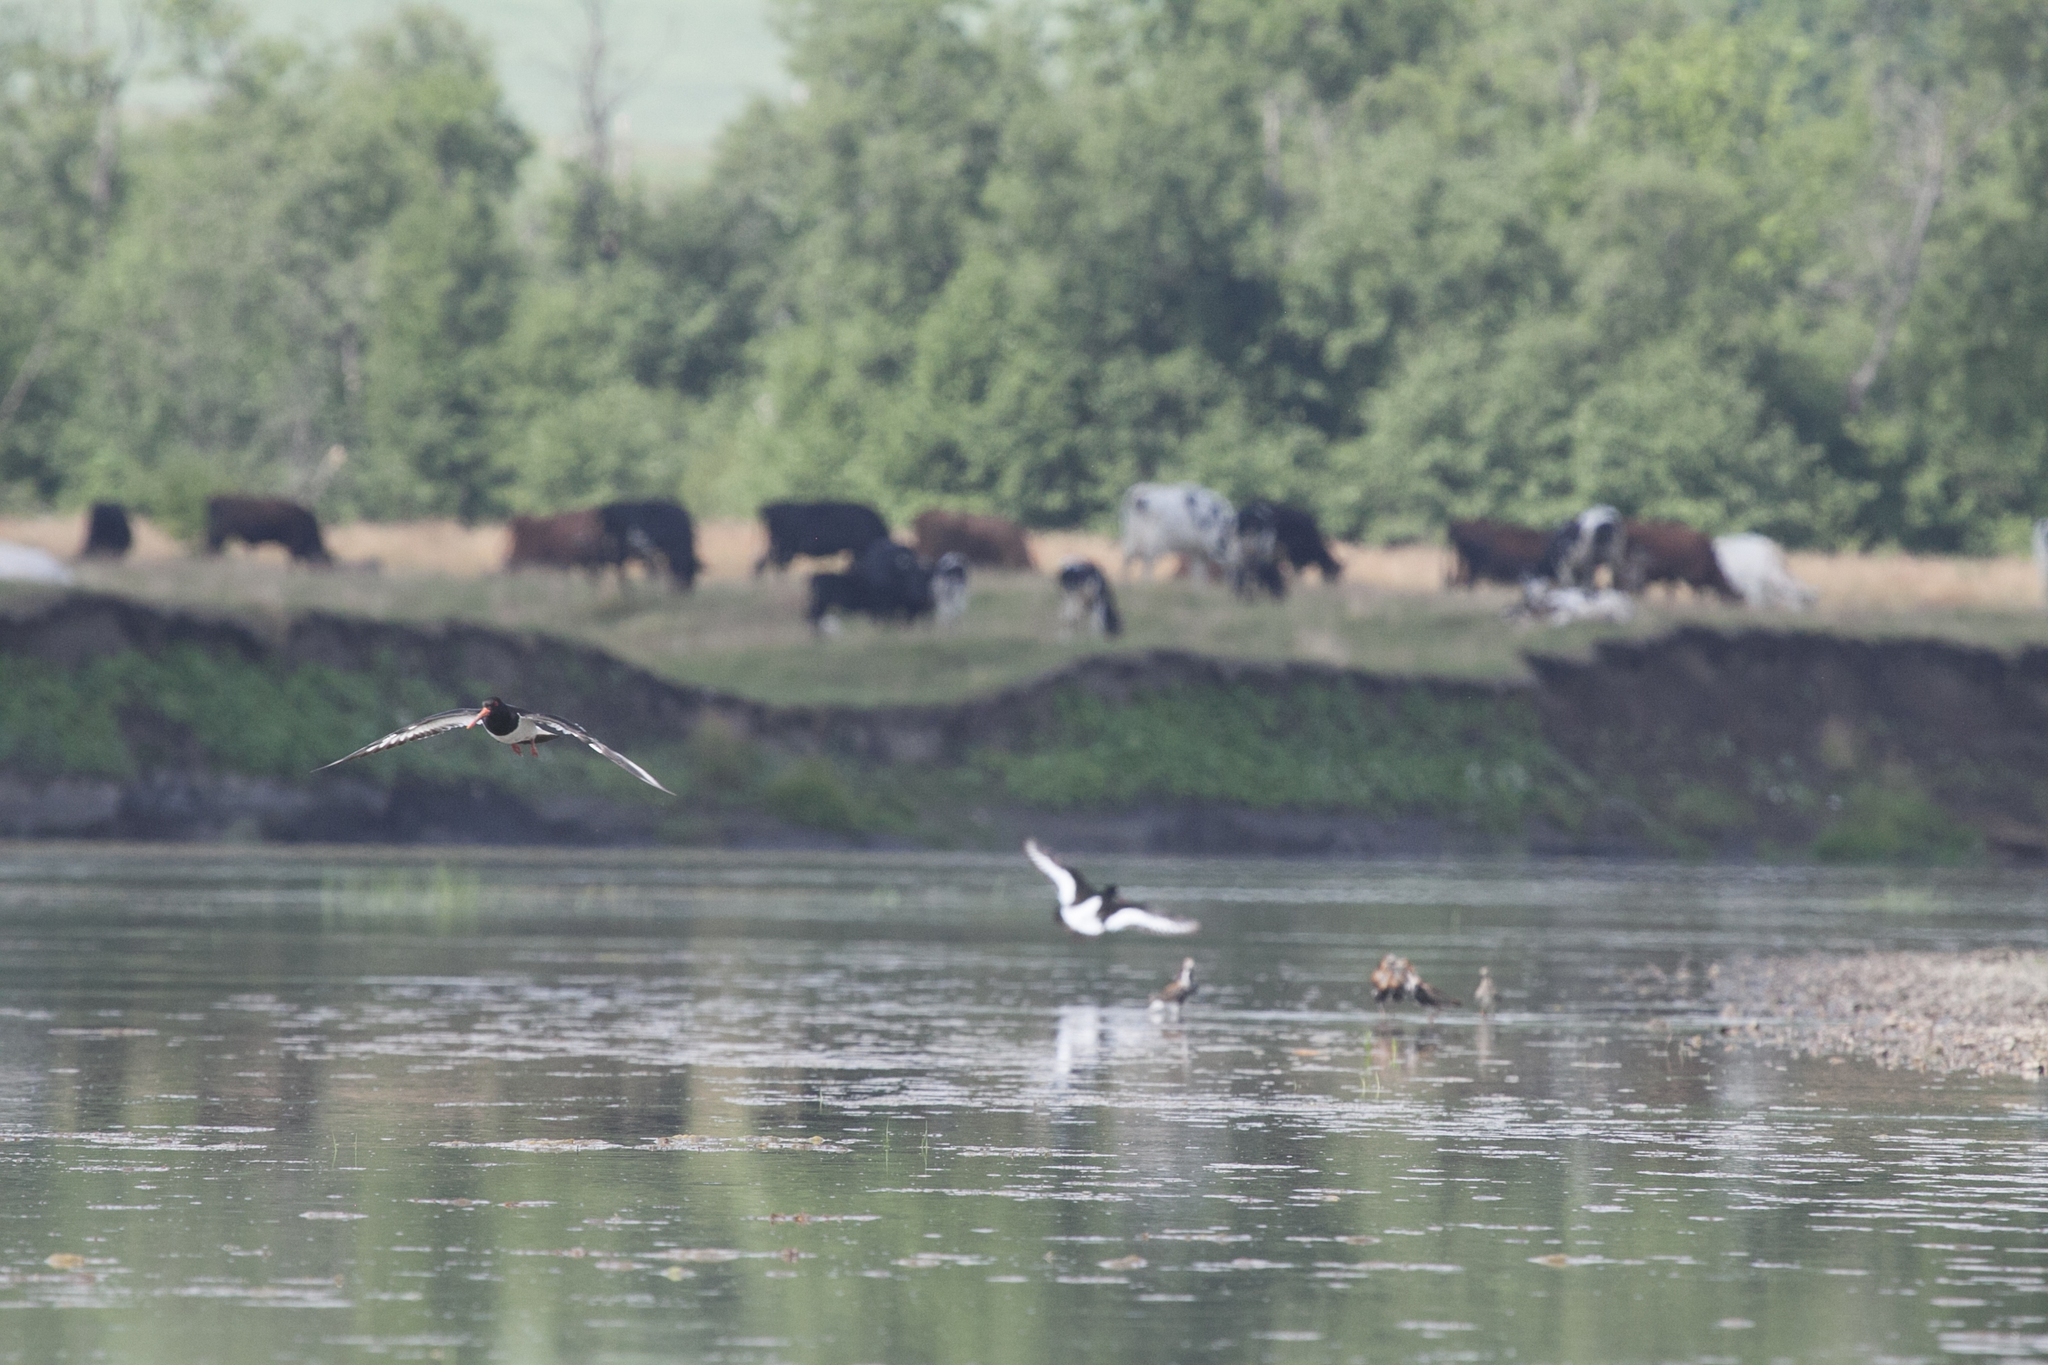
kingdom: Animalia
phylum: Chordata
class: Aves
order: Charadriiformes
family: Haematopodidae
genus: Haematopus
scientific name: Haematopus ostralegus
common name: Eurasian oystercatcher
